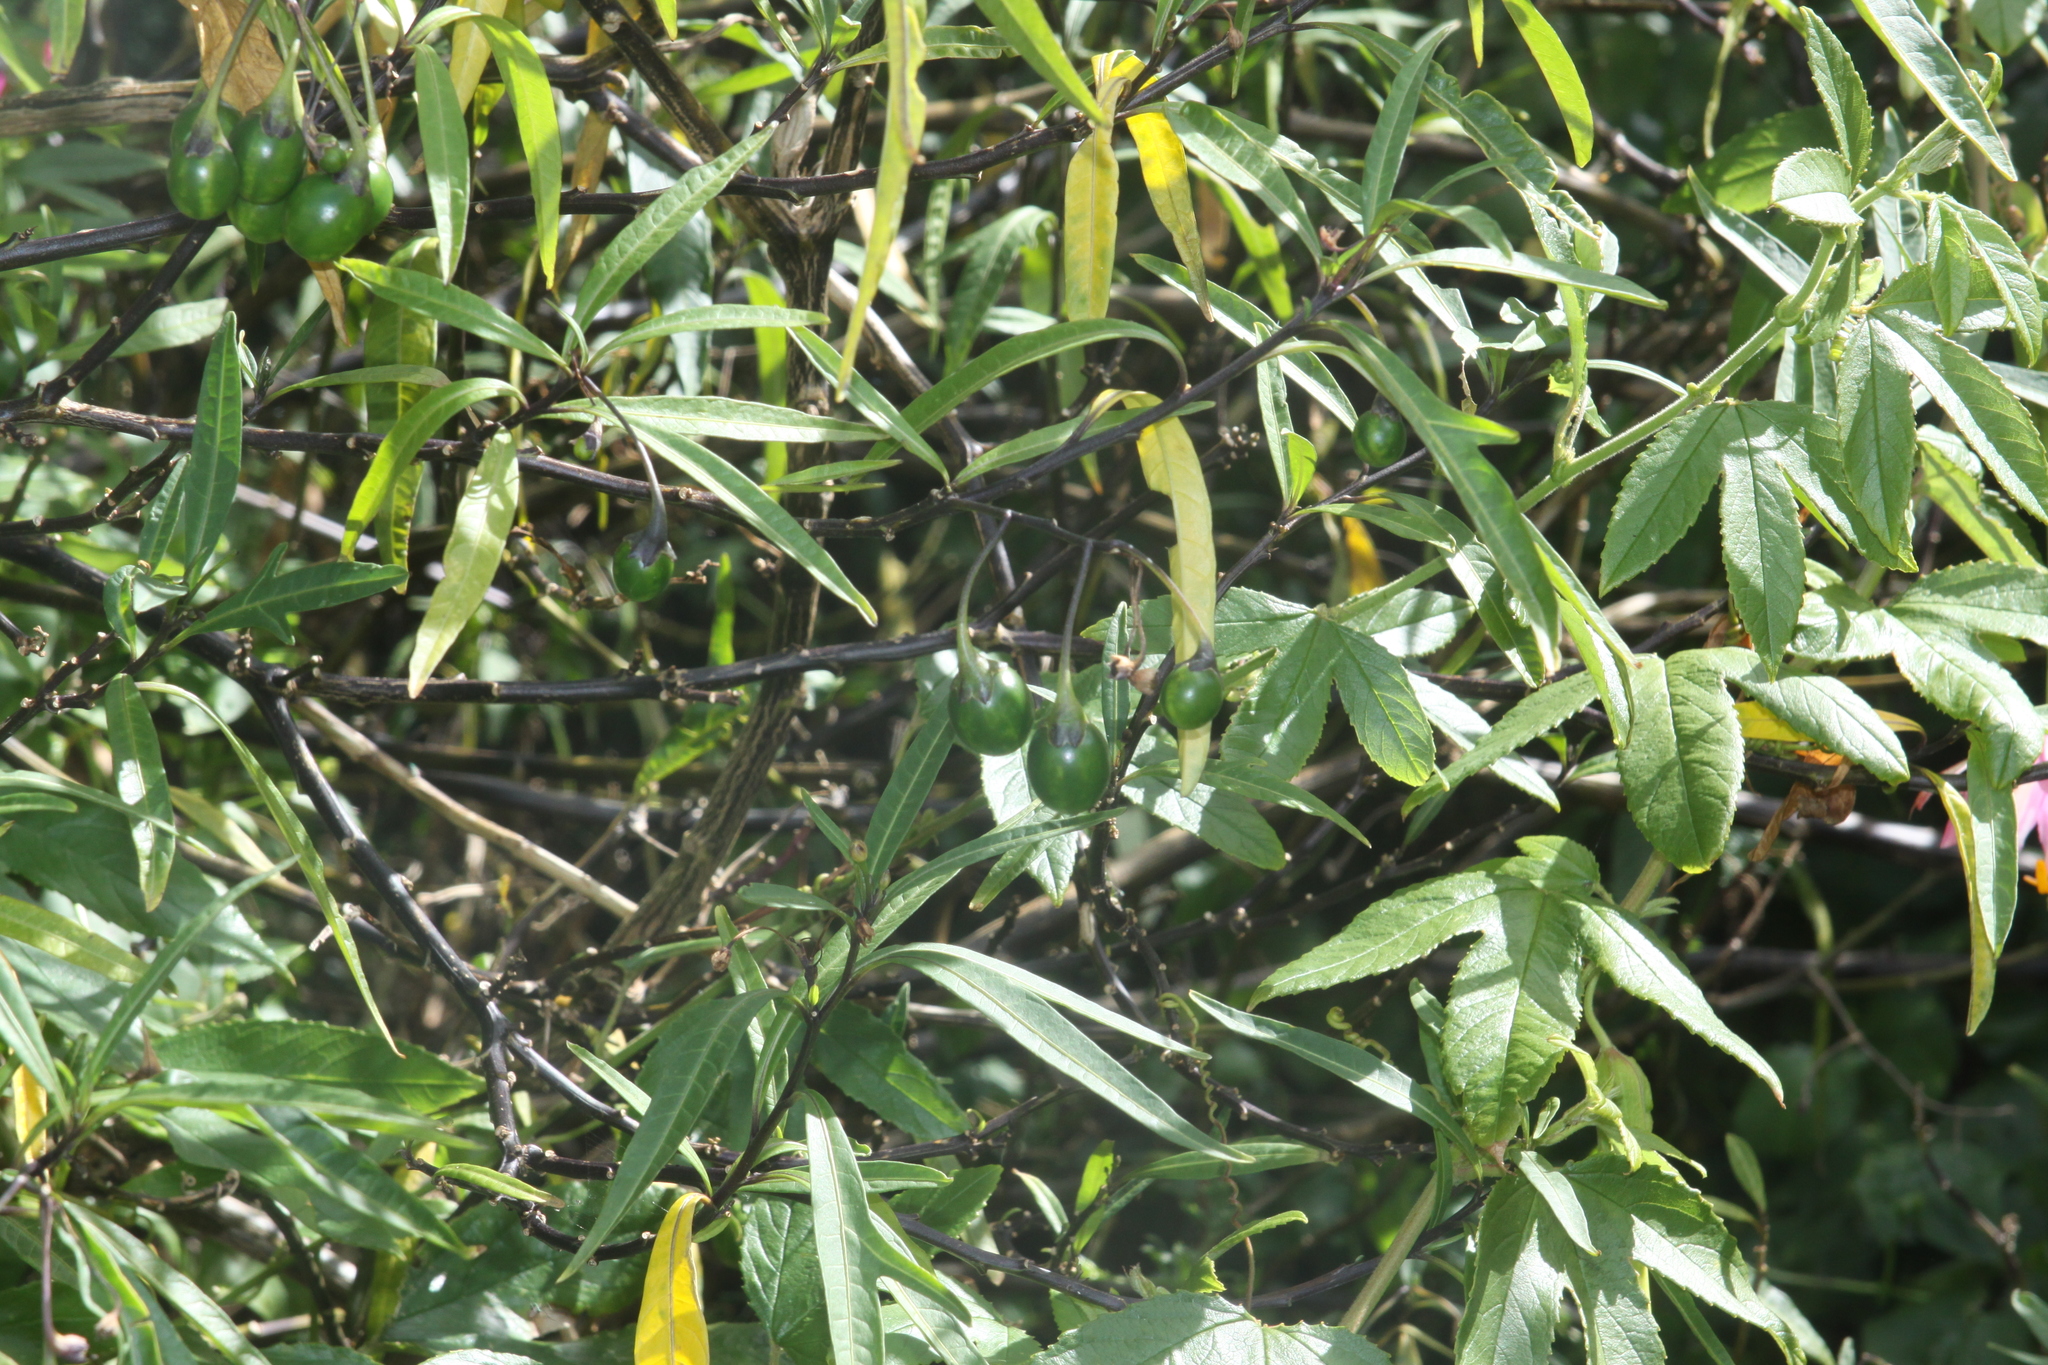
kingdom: Plantae
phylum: Tracheophyta
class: Magnoliopsida
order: Solanales
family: Solanaceae
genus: Solanum
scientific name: Solanum
